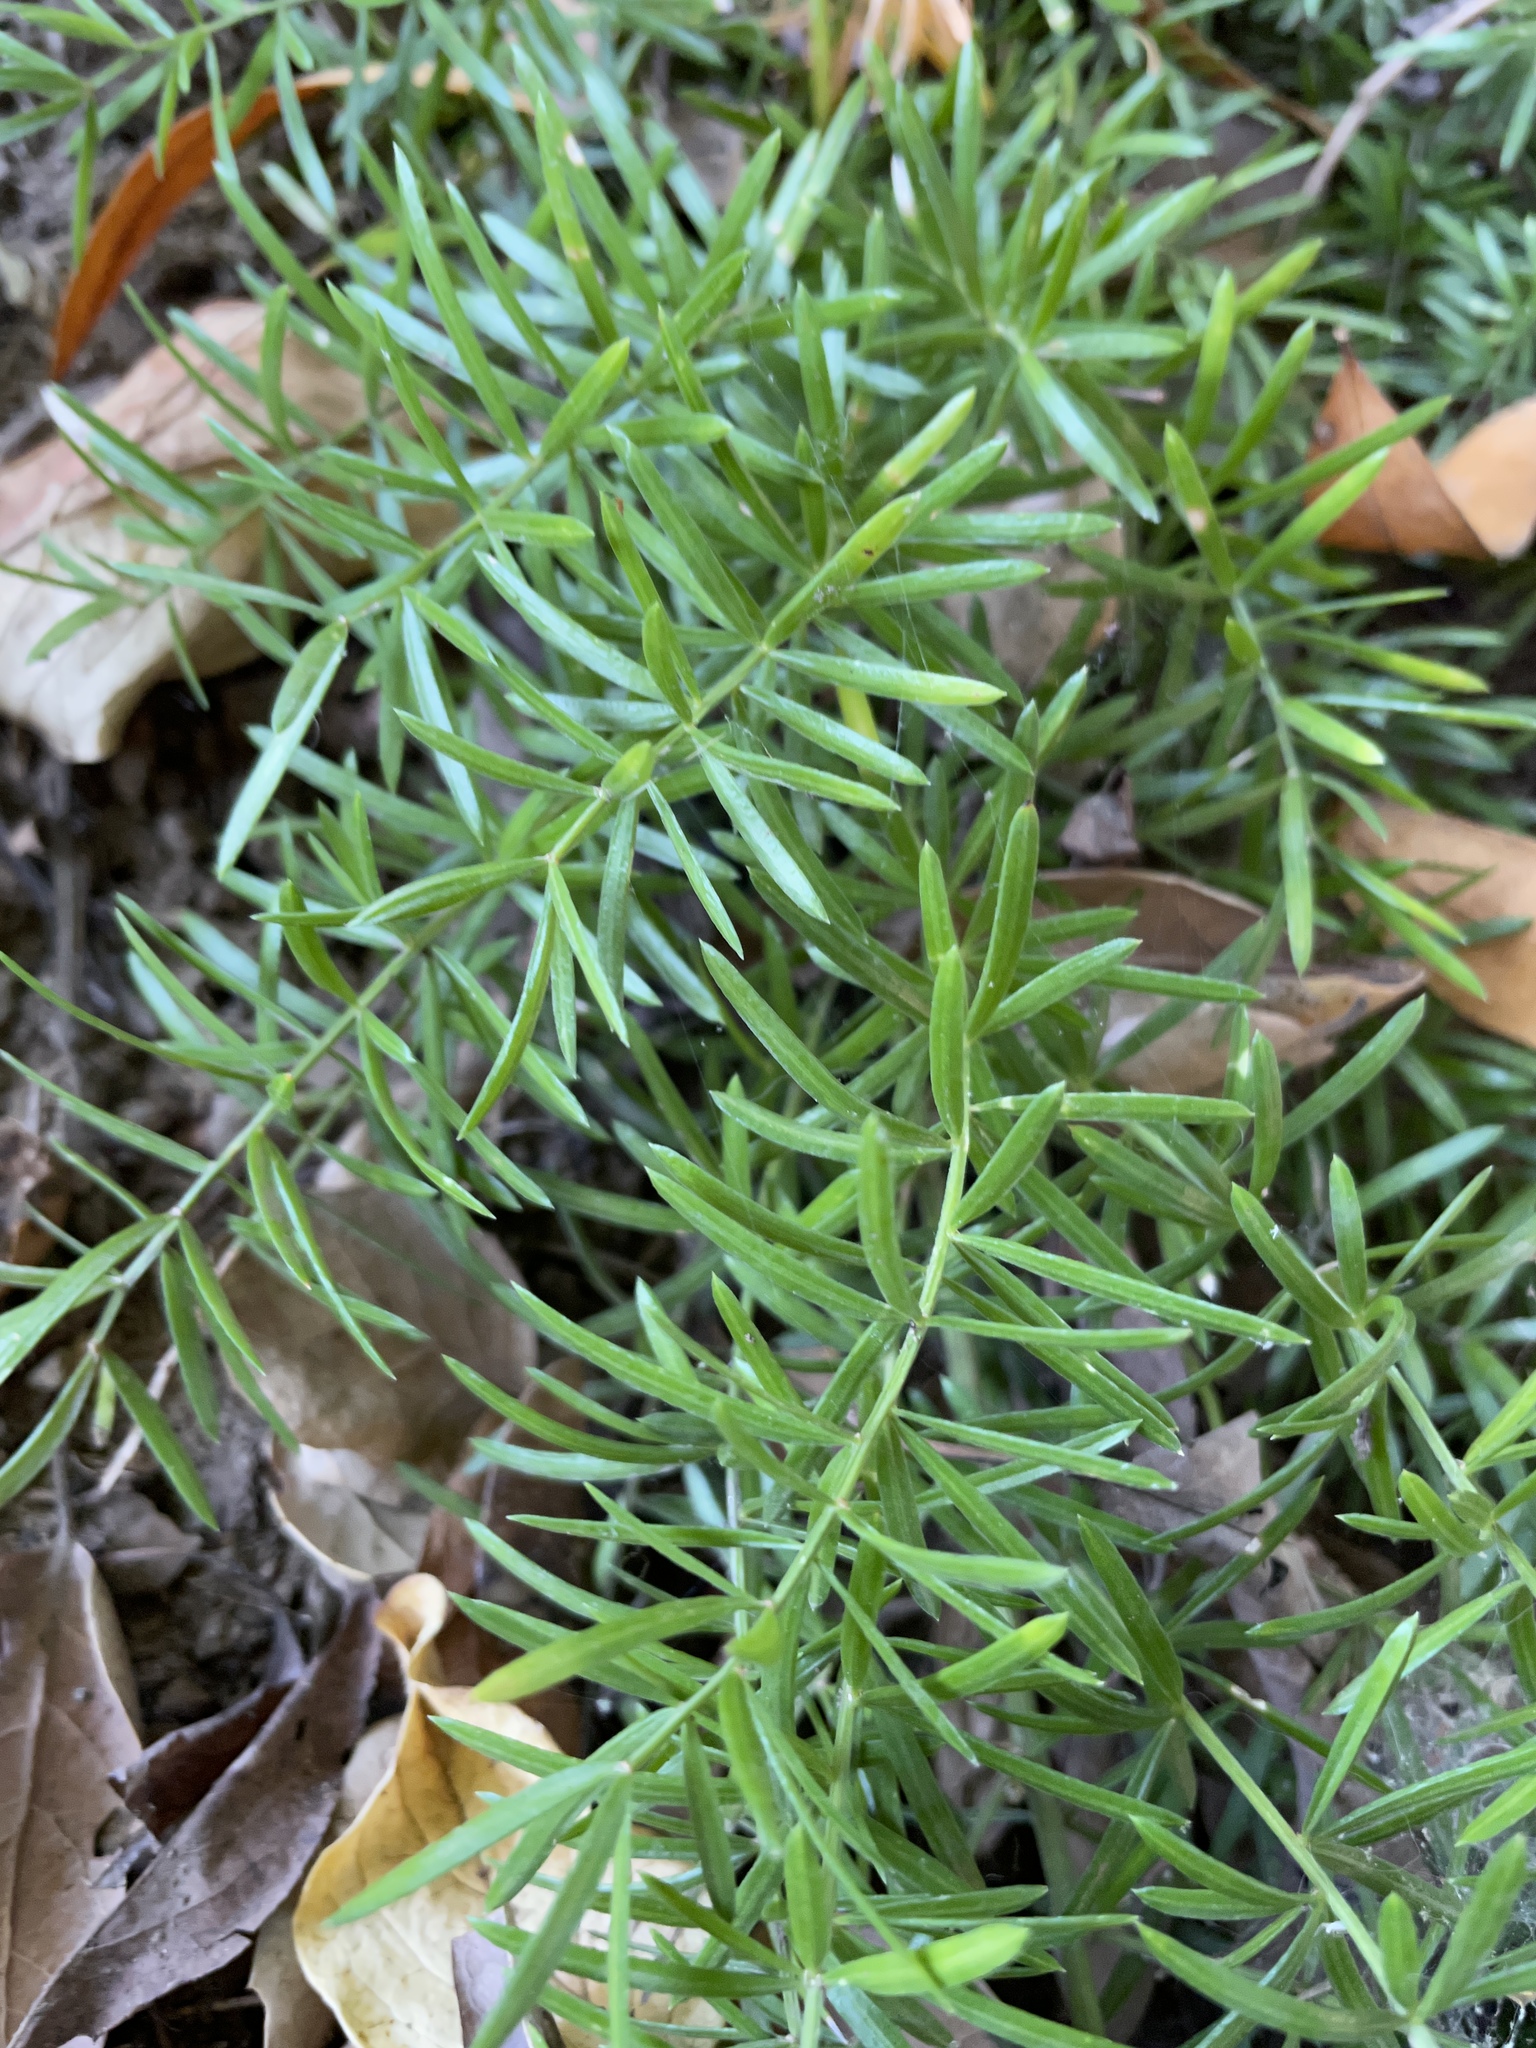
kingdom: Plantae
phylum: Tracheophyta
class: Liliopsida
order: Asparagales
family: Asparagaceae
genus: Asparagus
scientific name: Asparagus aethiopicus
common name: Sprenger's asparagus fern
